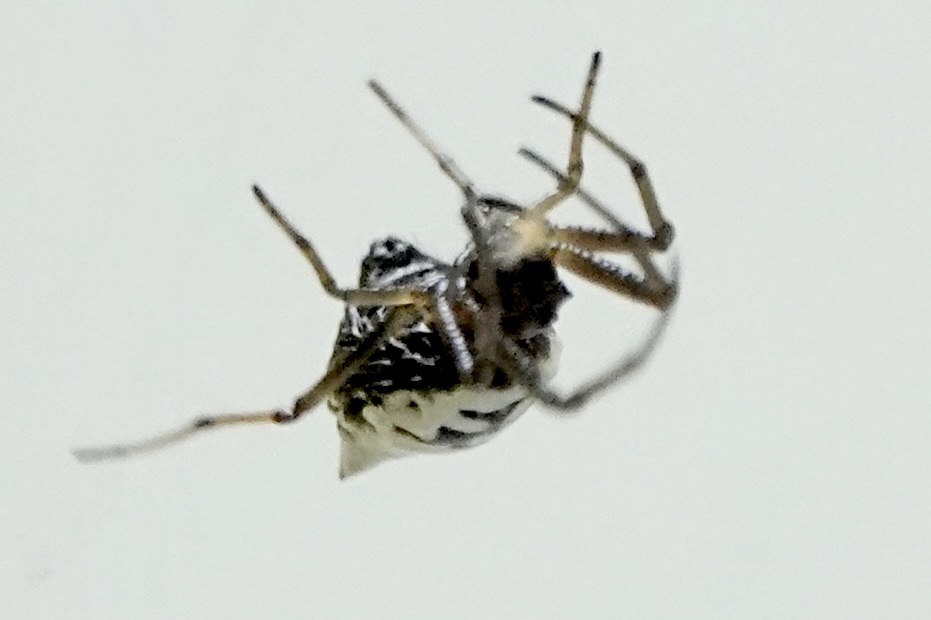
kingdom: Animalia
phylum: Arthropoda
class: Arachnida
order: Araneae
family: Araneidae
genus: Micrathena
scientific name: Micrathena mitrata
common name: Orb weavers
